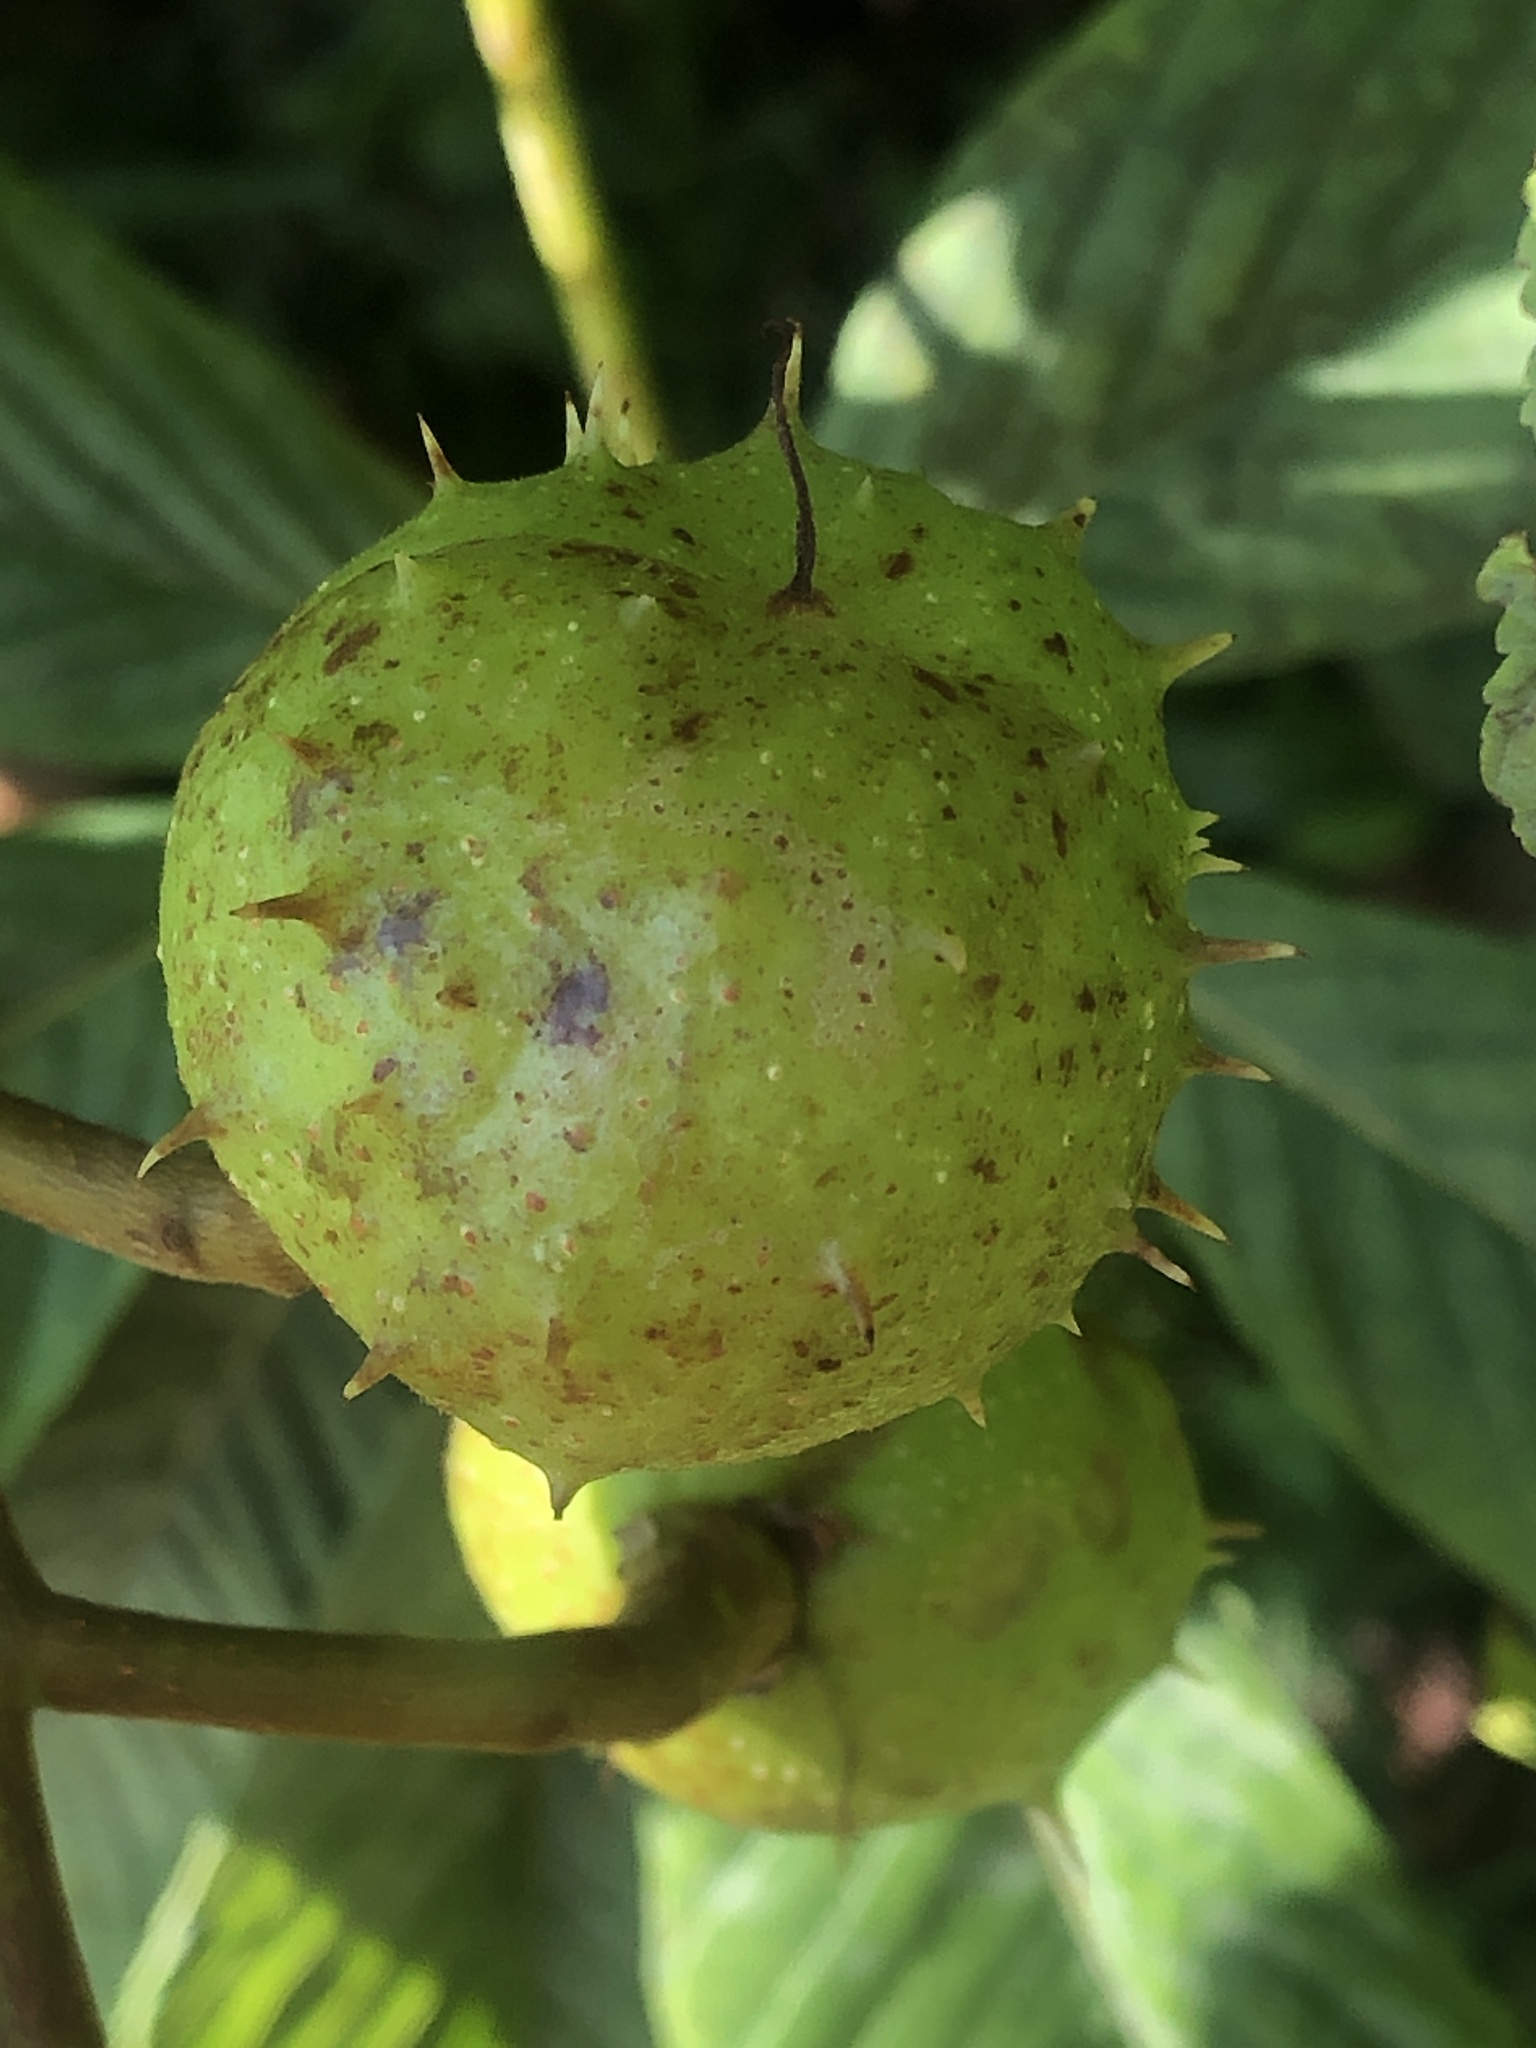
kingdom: Plantae
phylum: Tracheophyta
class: Magnoliopsida
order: Sapindales
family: Sapindaceae
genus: Aesculus
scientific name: Aesculus hippocastanum
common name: Horse-chestnut
